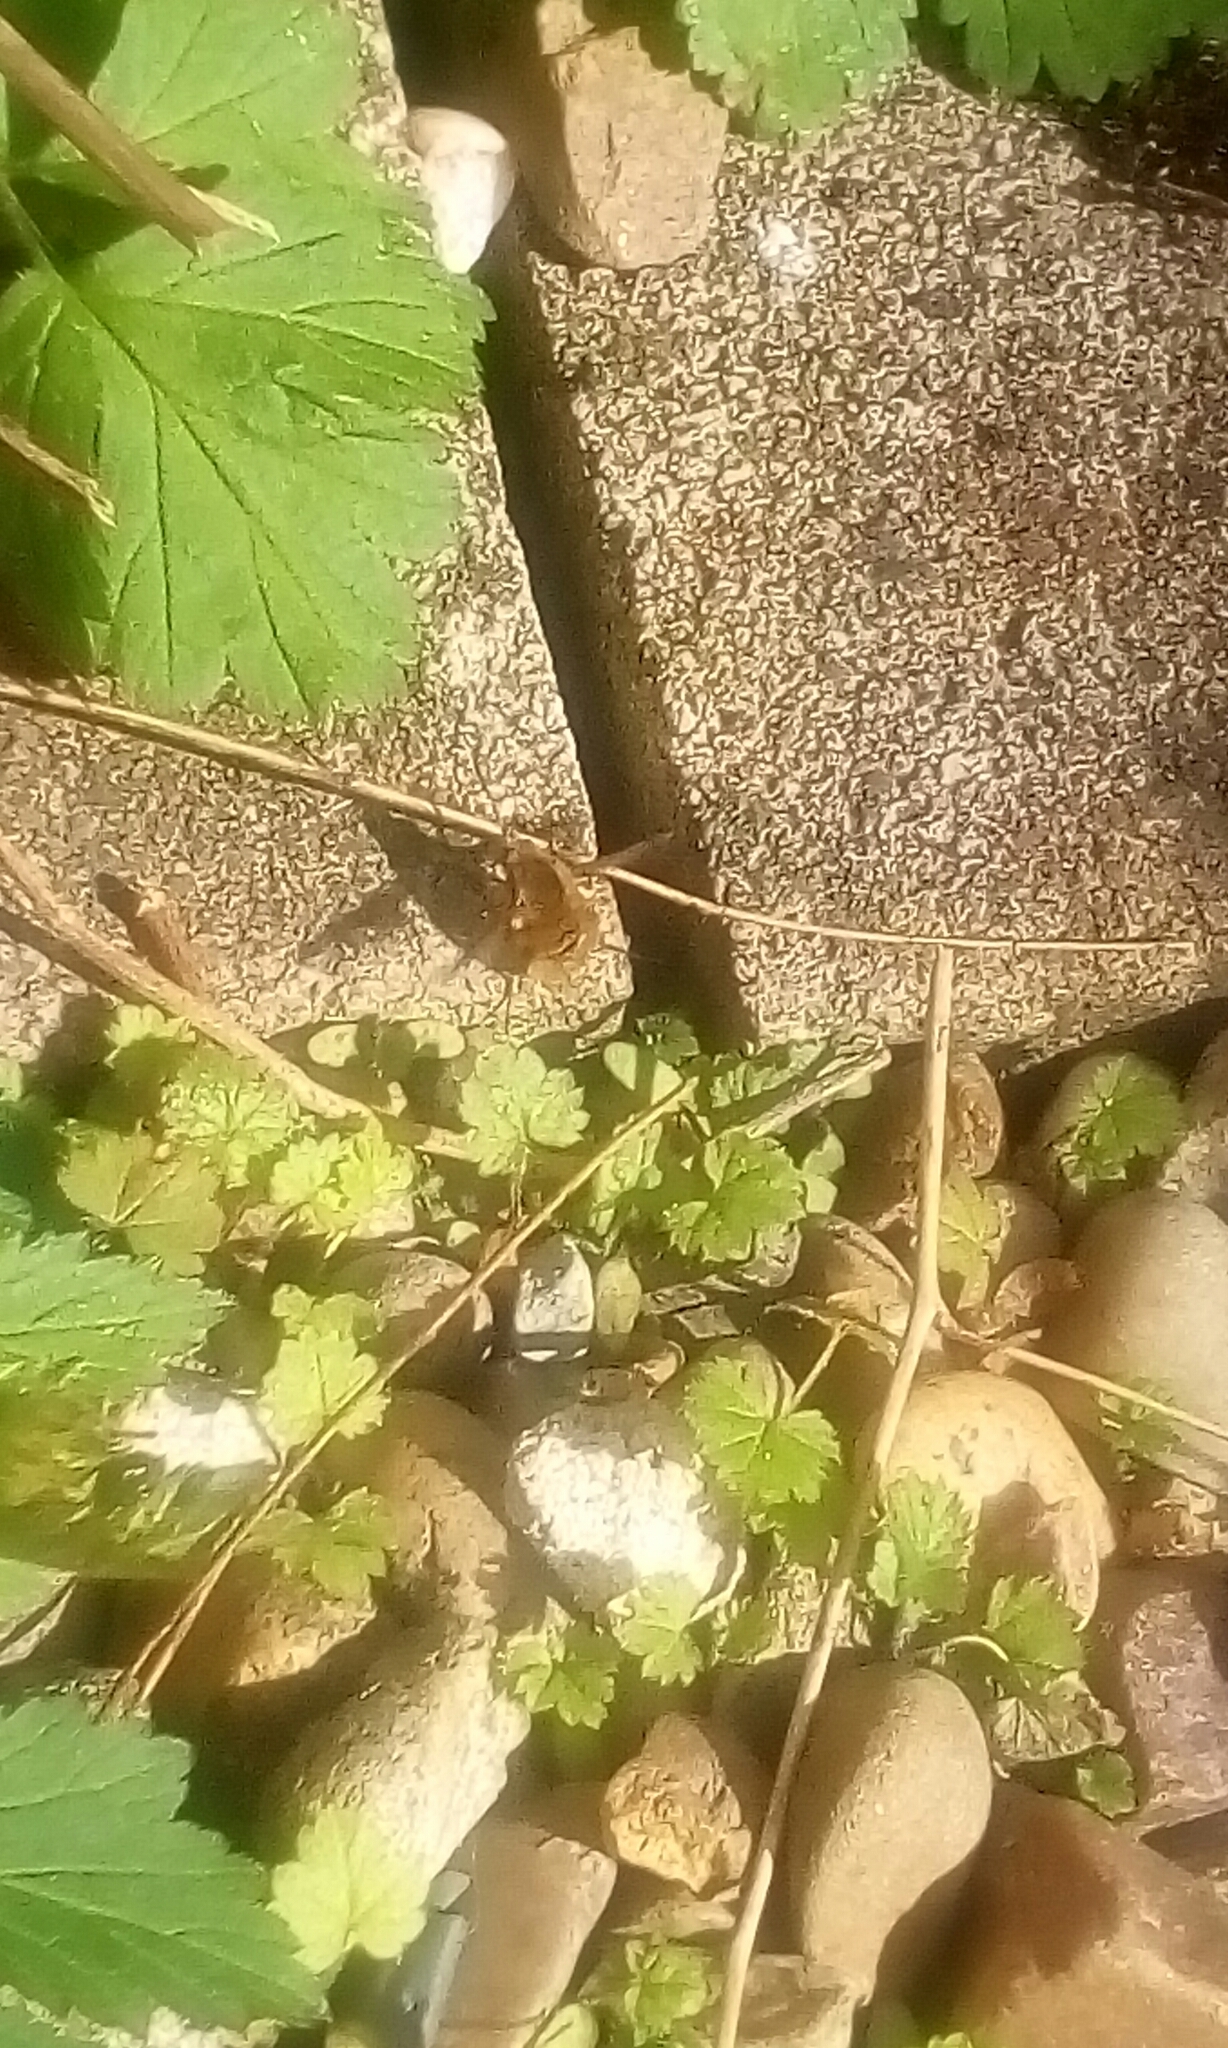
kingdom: Animalia
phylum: Arthropoda
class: Insecta
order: Diptera
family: Bombyliidae
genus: Bombylius
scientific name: Bombylius major
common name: Bee fly
